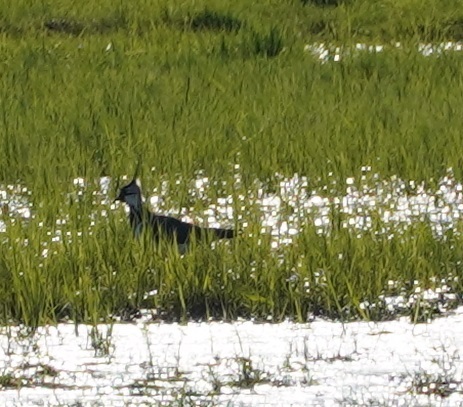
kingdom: Animalia
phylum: Chordata
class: Aves
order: Charadriiformes
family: Charadriidae
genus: Vanellus
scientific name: Vanellus vanellus
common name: Northern lapwing
